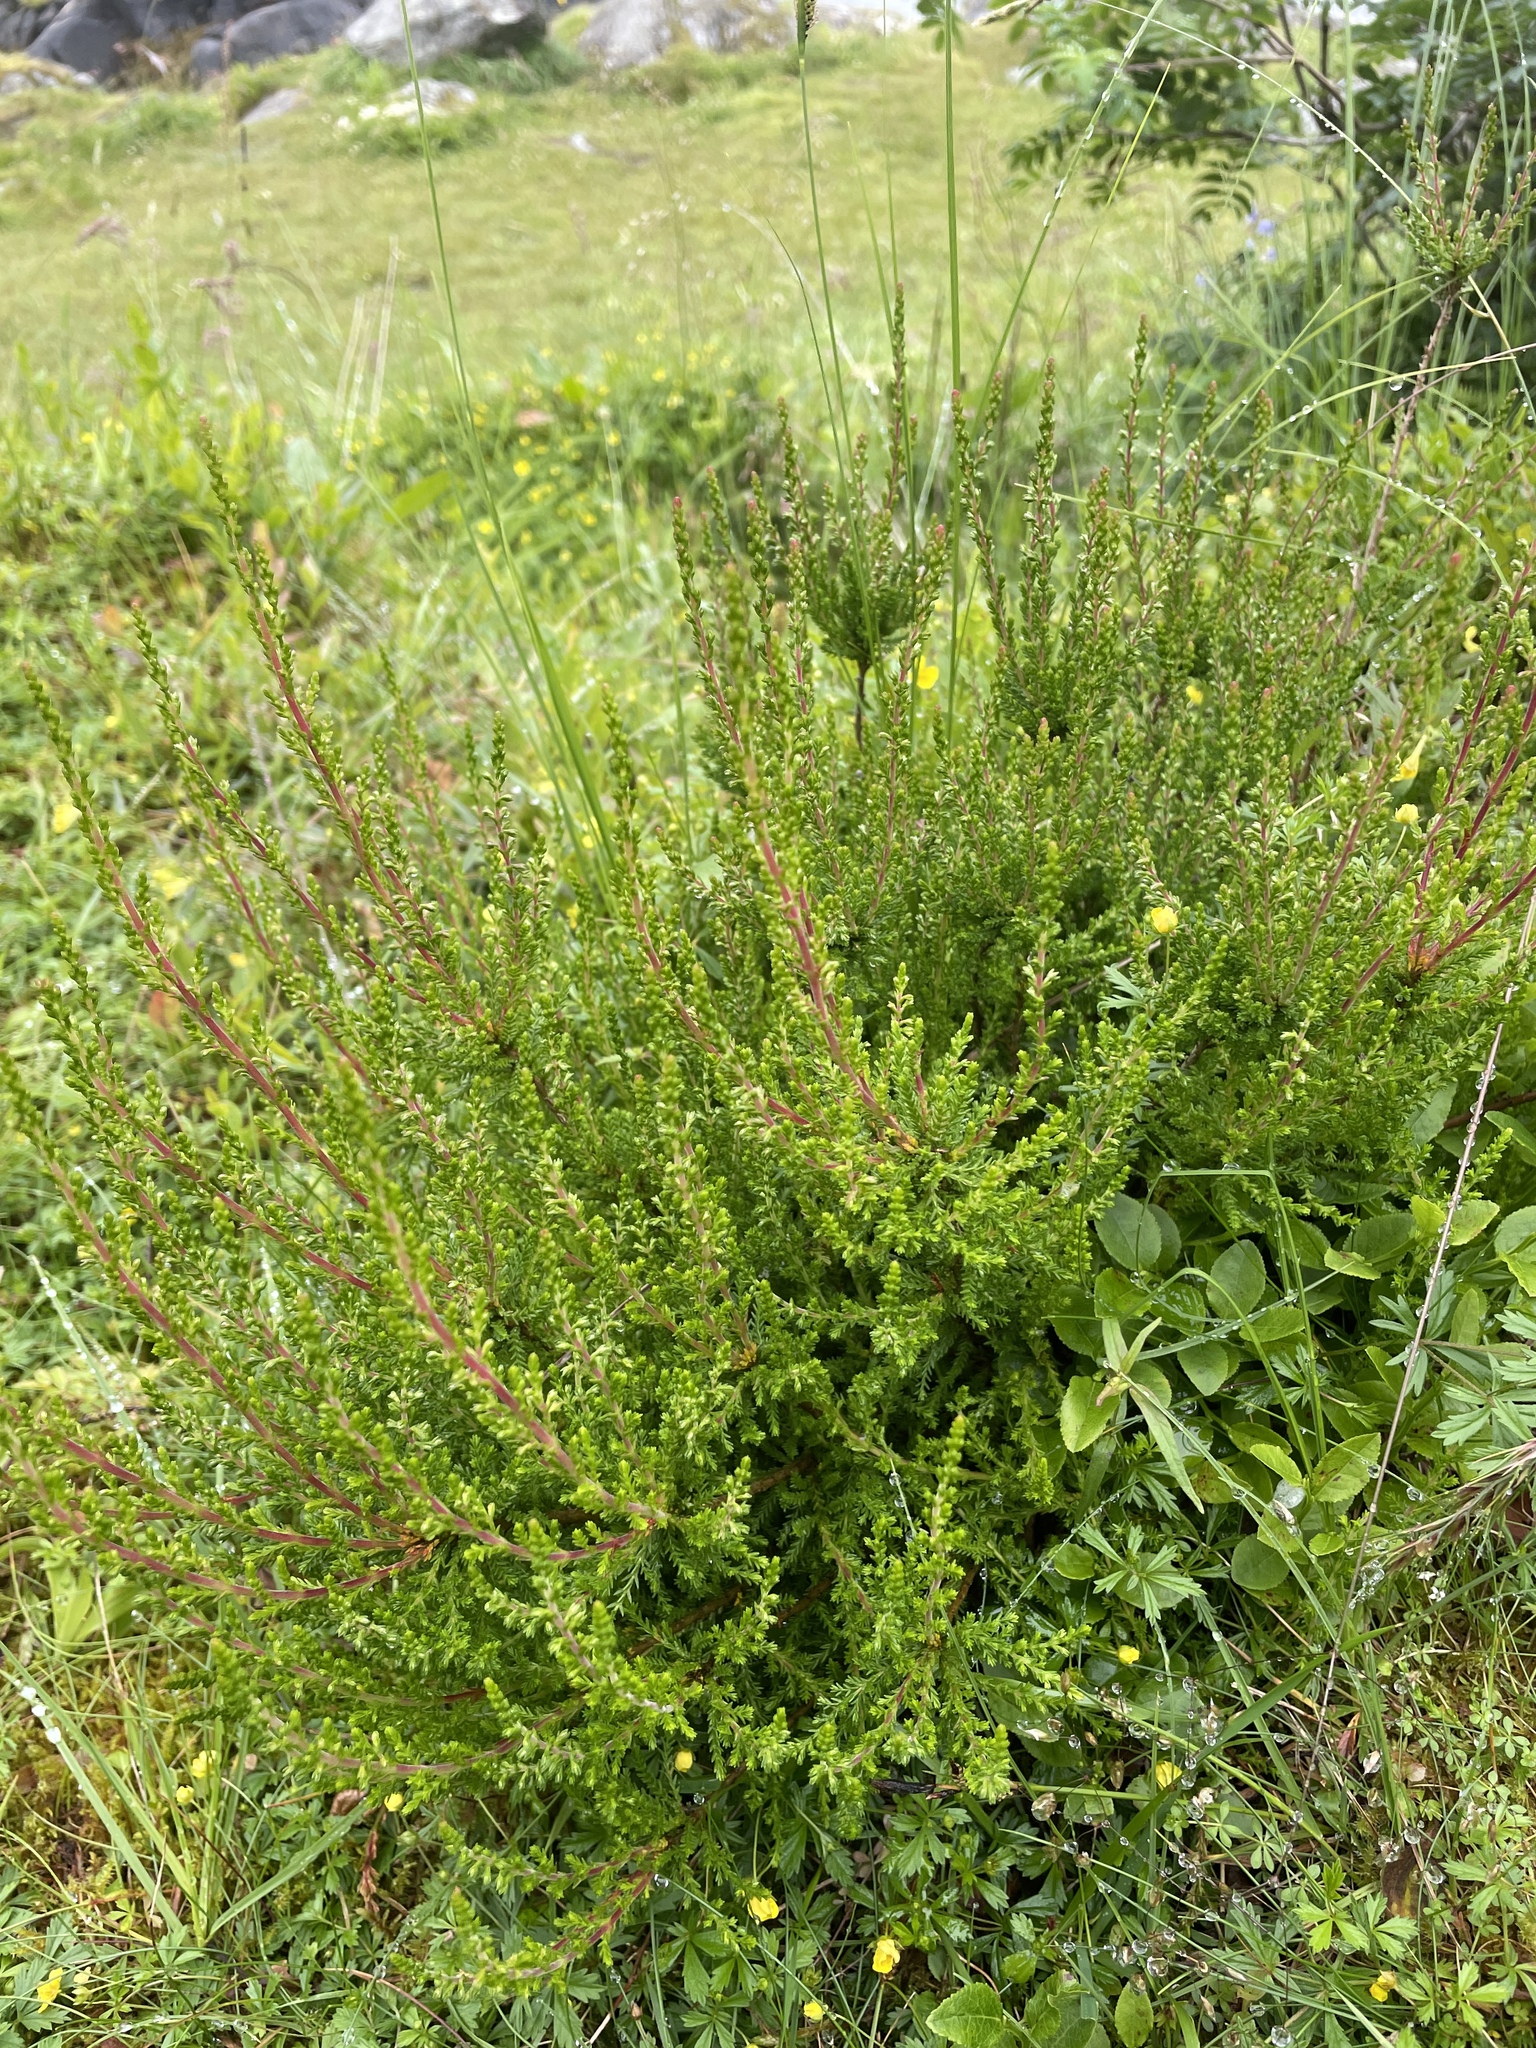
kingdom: Plantae
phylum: Tracheophyta
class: Magnoliopsida
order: Ericales
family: Ericaceae
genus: Calluna
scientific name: Calluna vulgaris
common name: Heather
